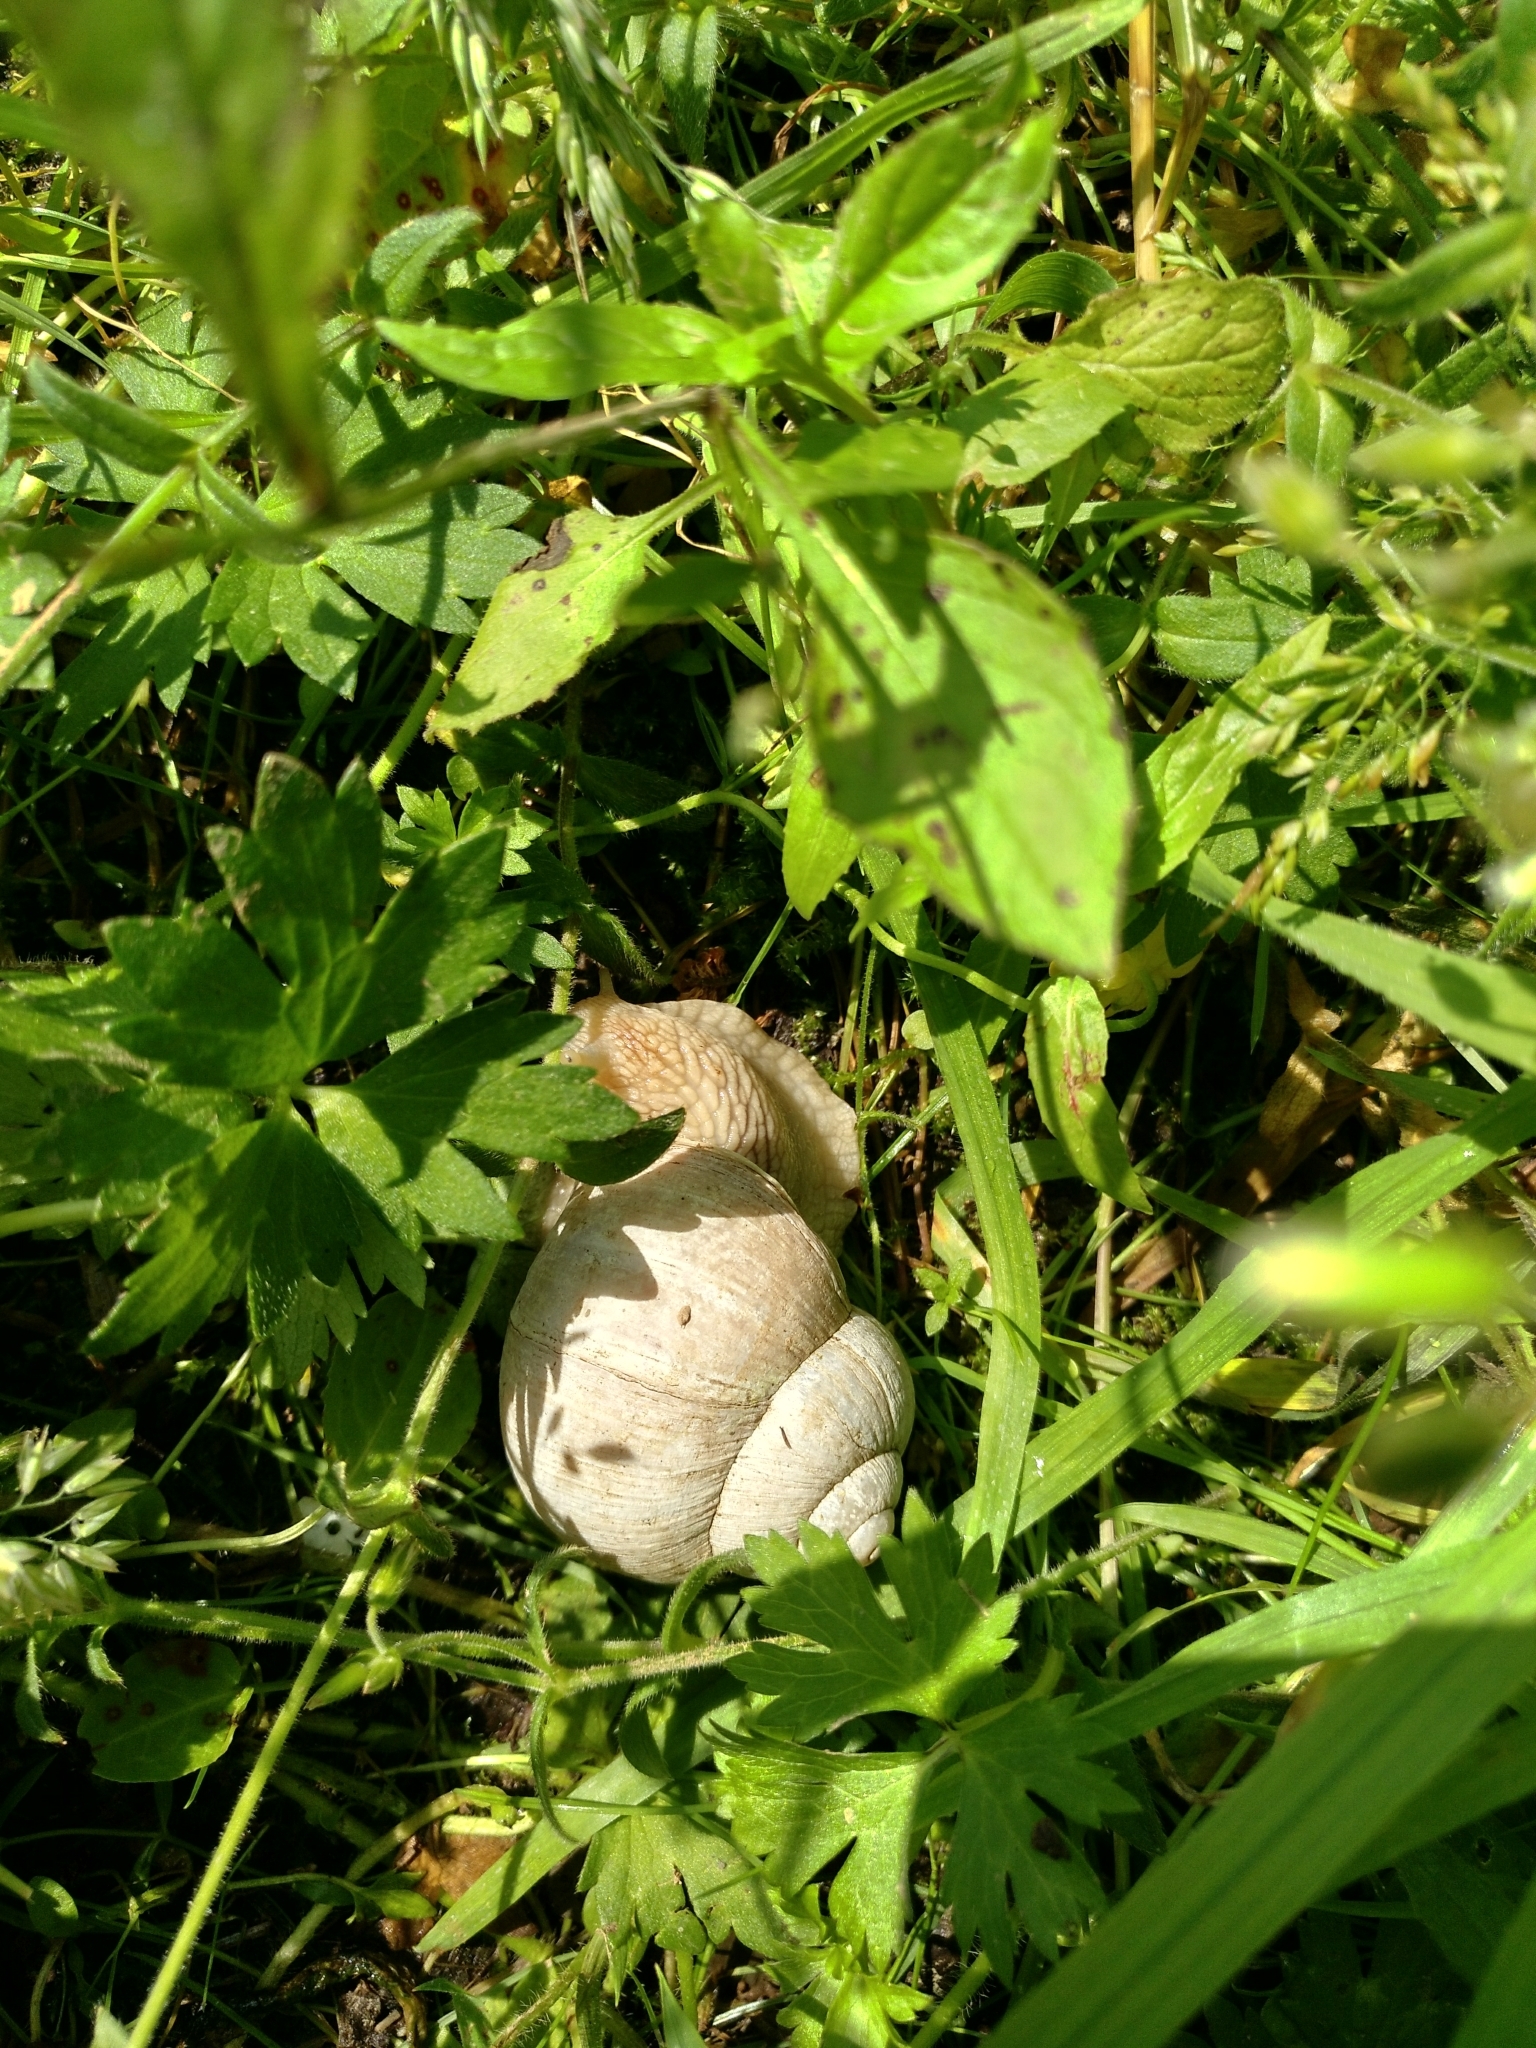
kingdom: Animalia
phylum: Mollusca
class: Gastropoda
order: Stylommatophora
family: Helicidae
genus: Helix
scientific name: Helix pomatia
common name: Roman snail
